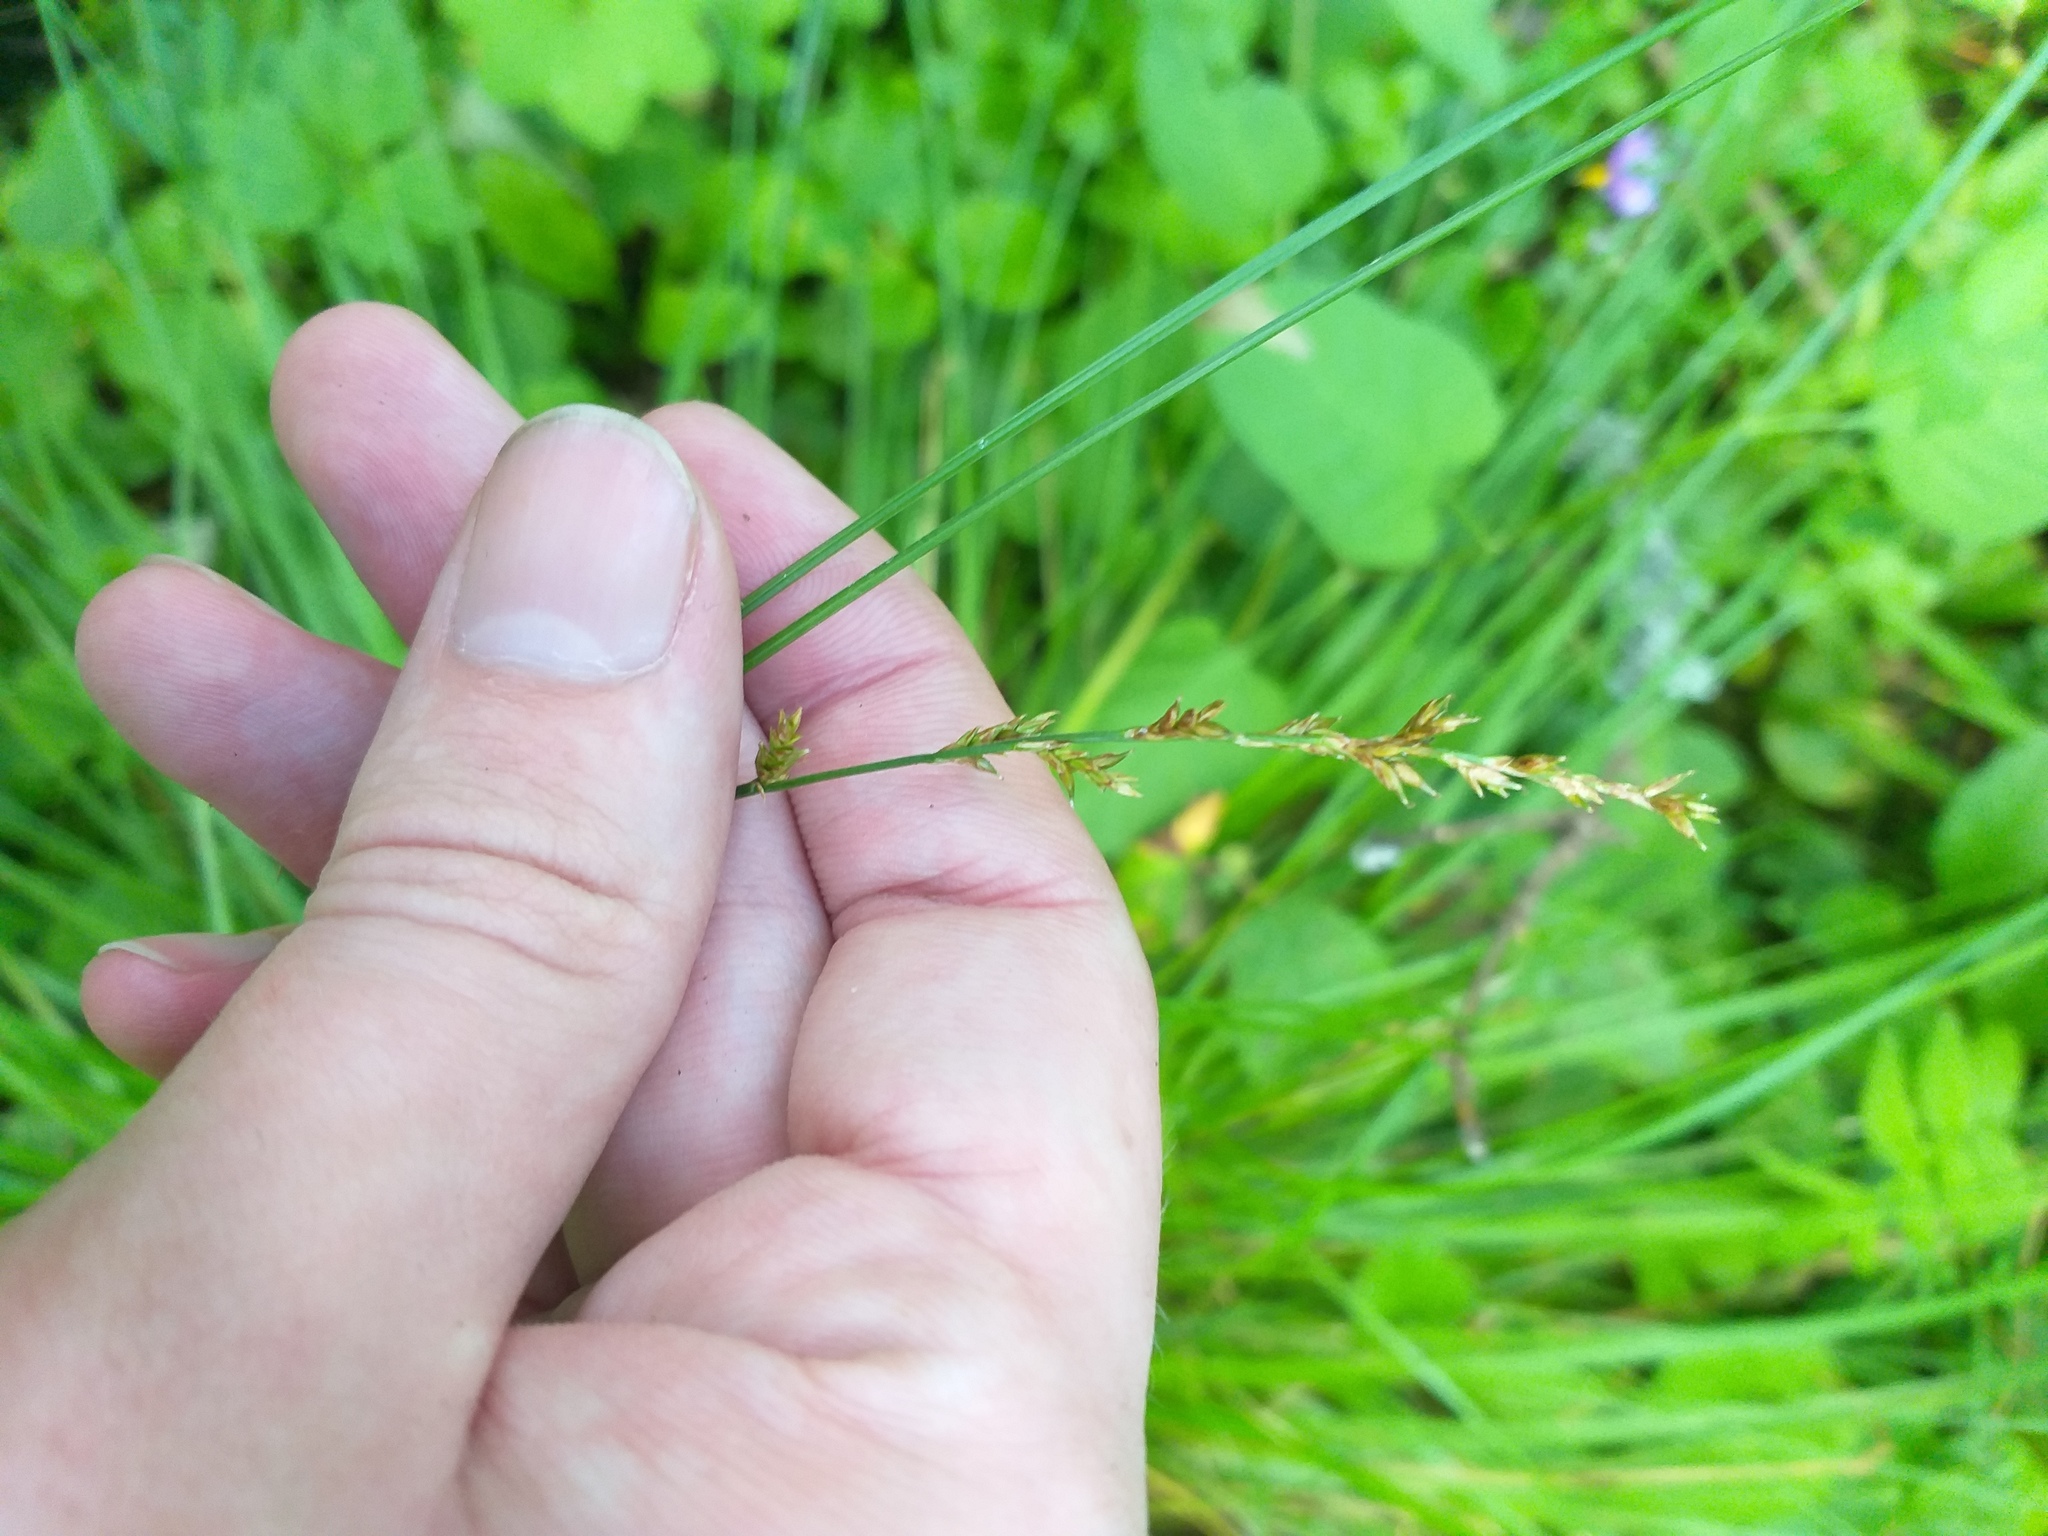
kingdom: Plantae
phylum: Tracheophyta
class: Liliopsida
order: Poales
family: Cyperaceae
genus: Carex
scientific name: Carex elongata
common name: Elongated sedge
